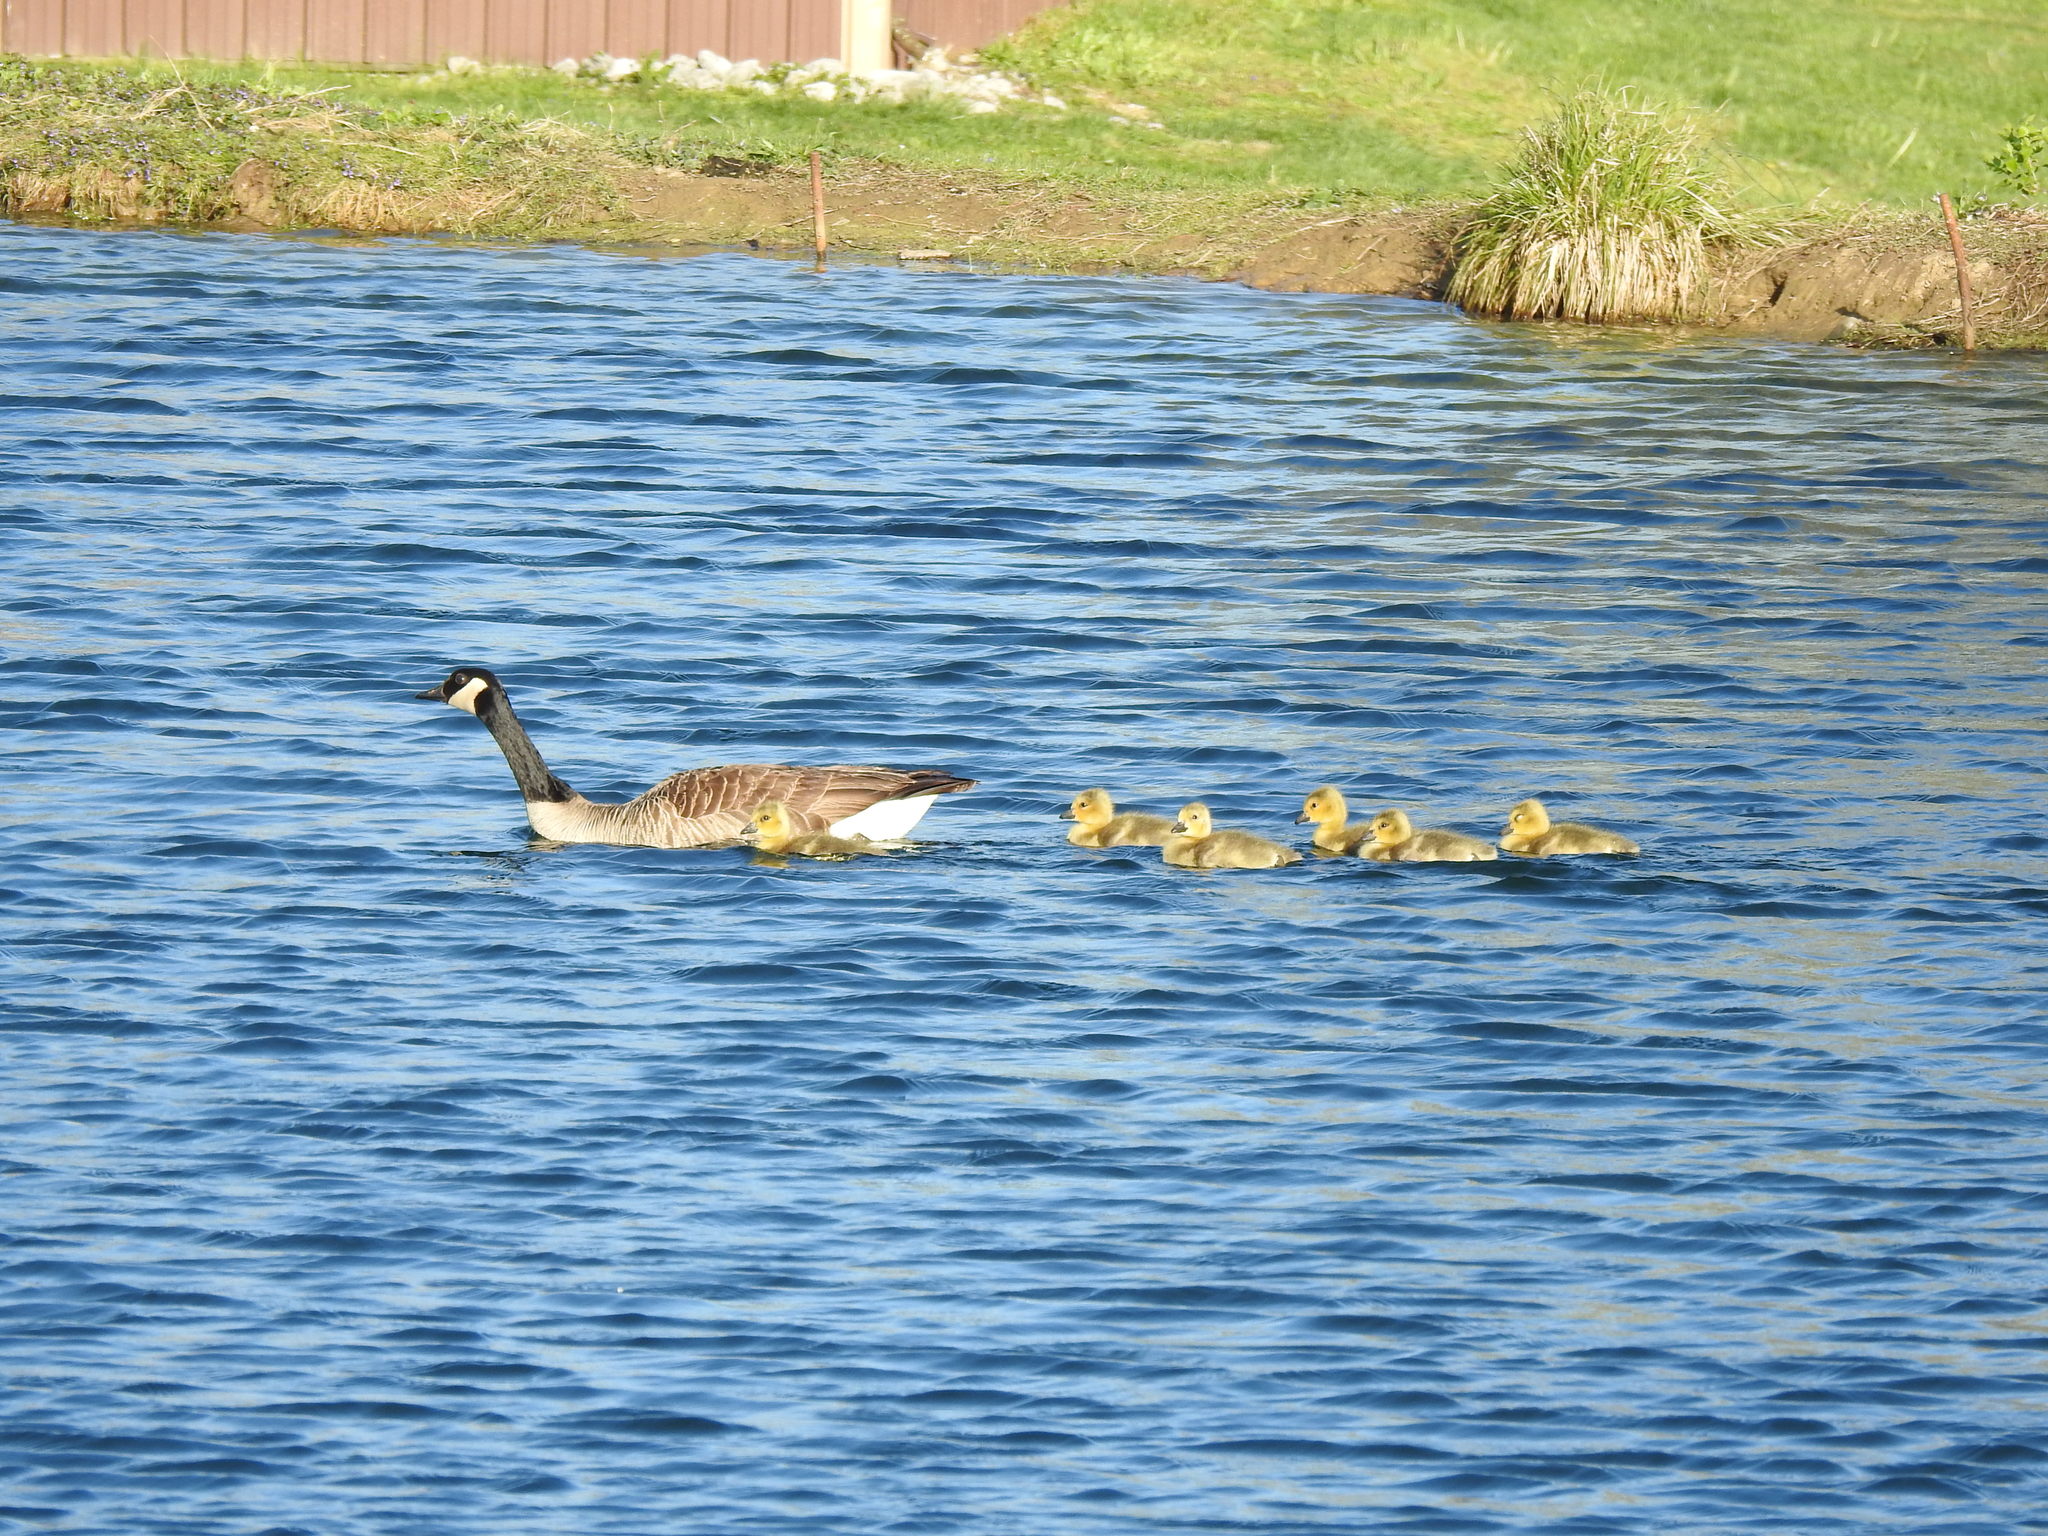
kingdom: Animalia
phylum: Chordata
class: Aves
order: Anseriformes
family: Anatidae
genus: Branta
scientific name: Branta canadensis
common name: Canada goose
